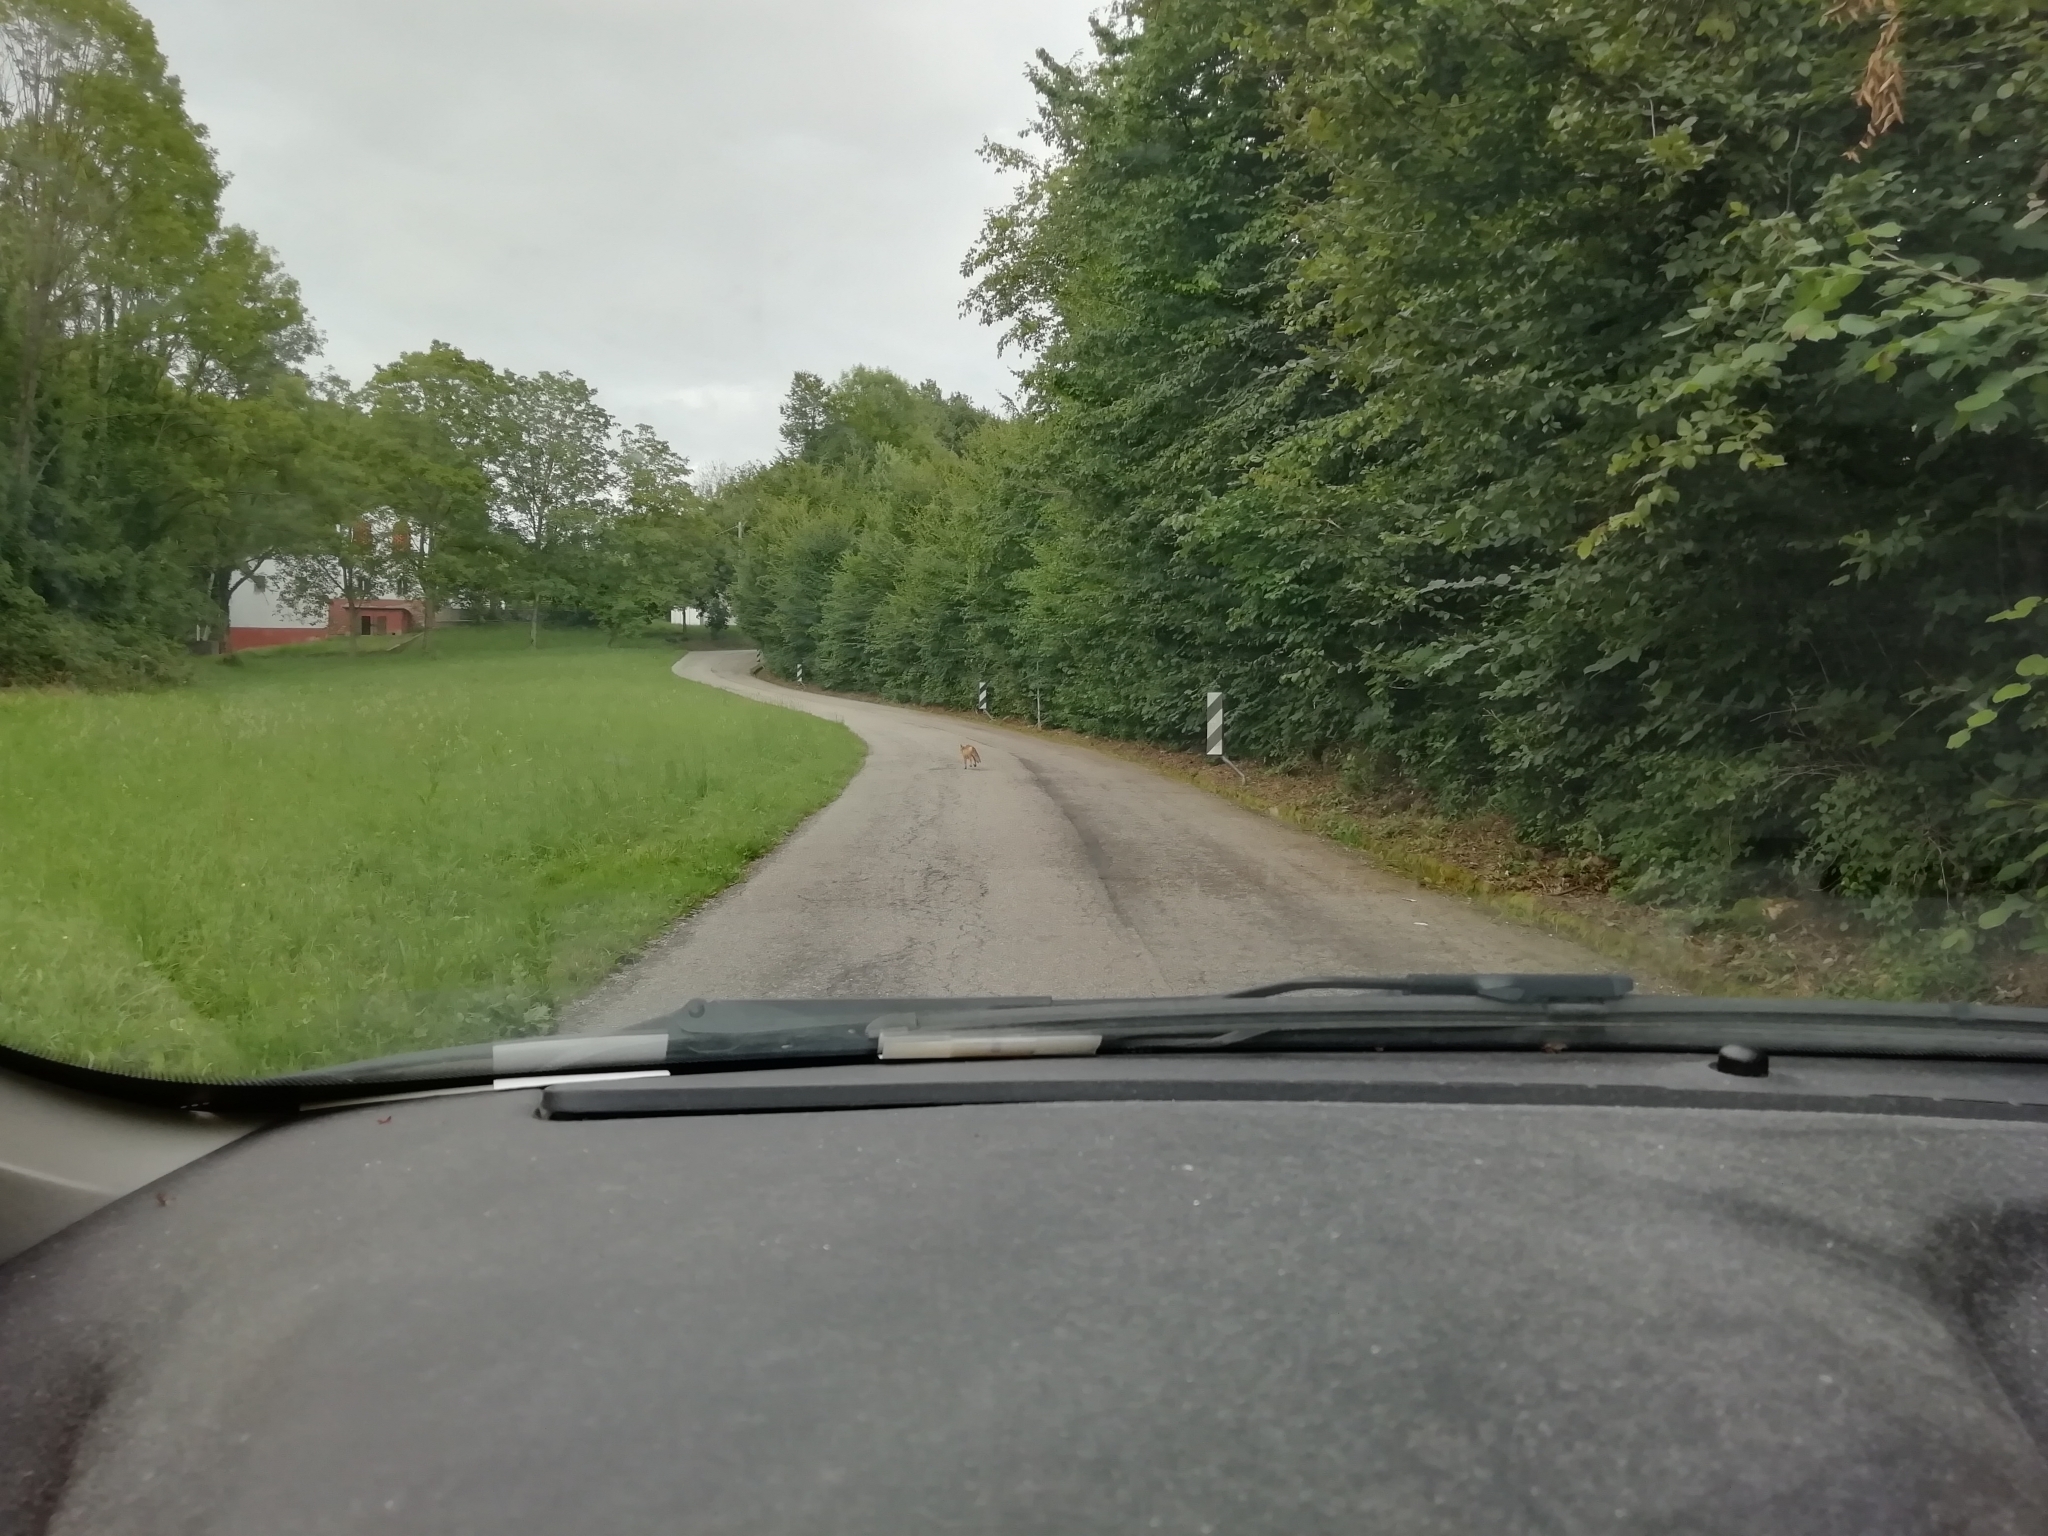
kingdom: Animalia
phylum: Chordata
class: Mammalia
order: Carnivora
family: Canidae
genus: Vulpes
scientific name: Vulpes vulpes
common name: Red fox
